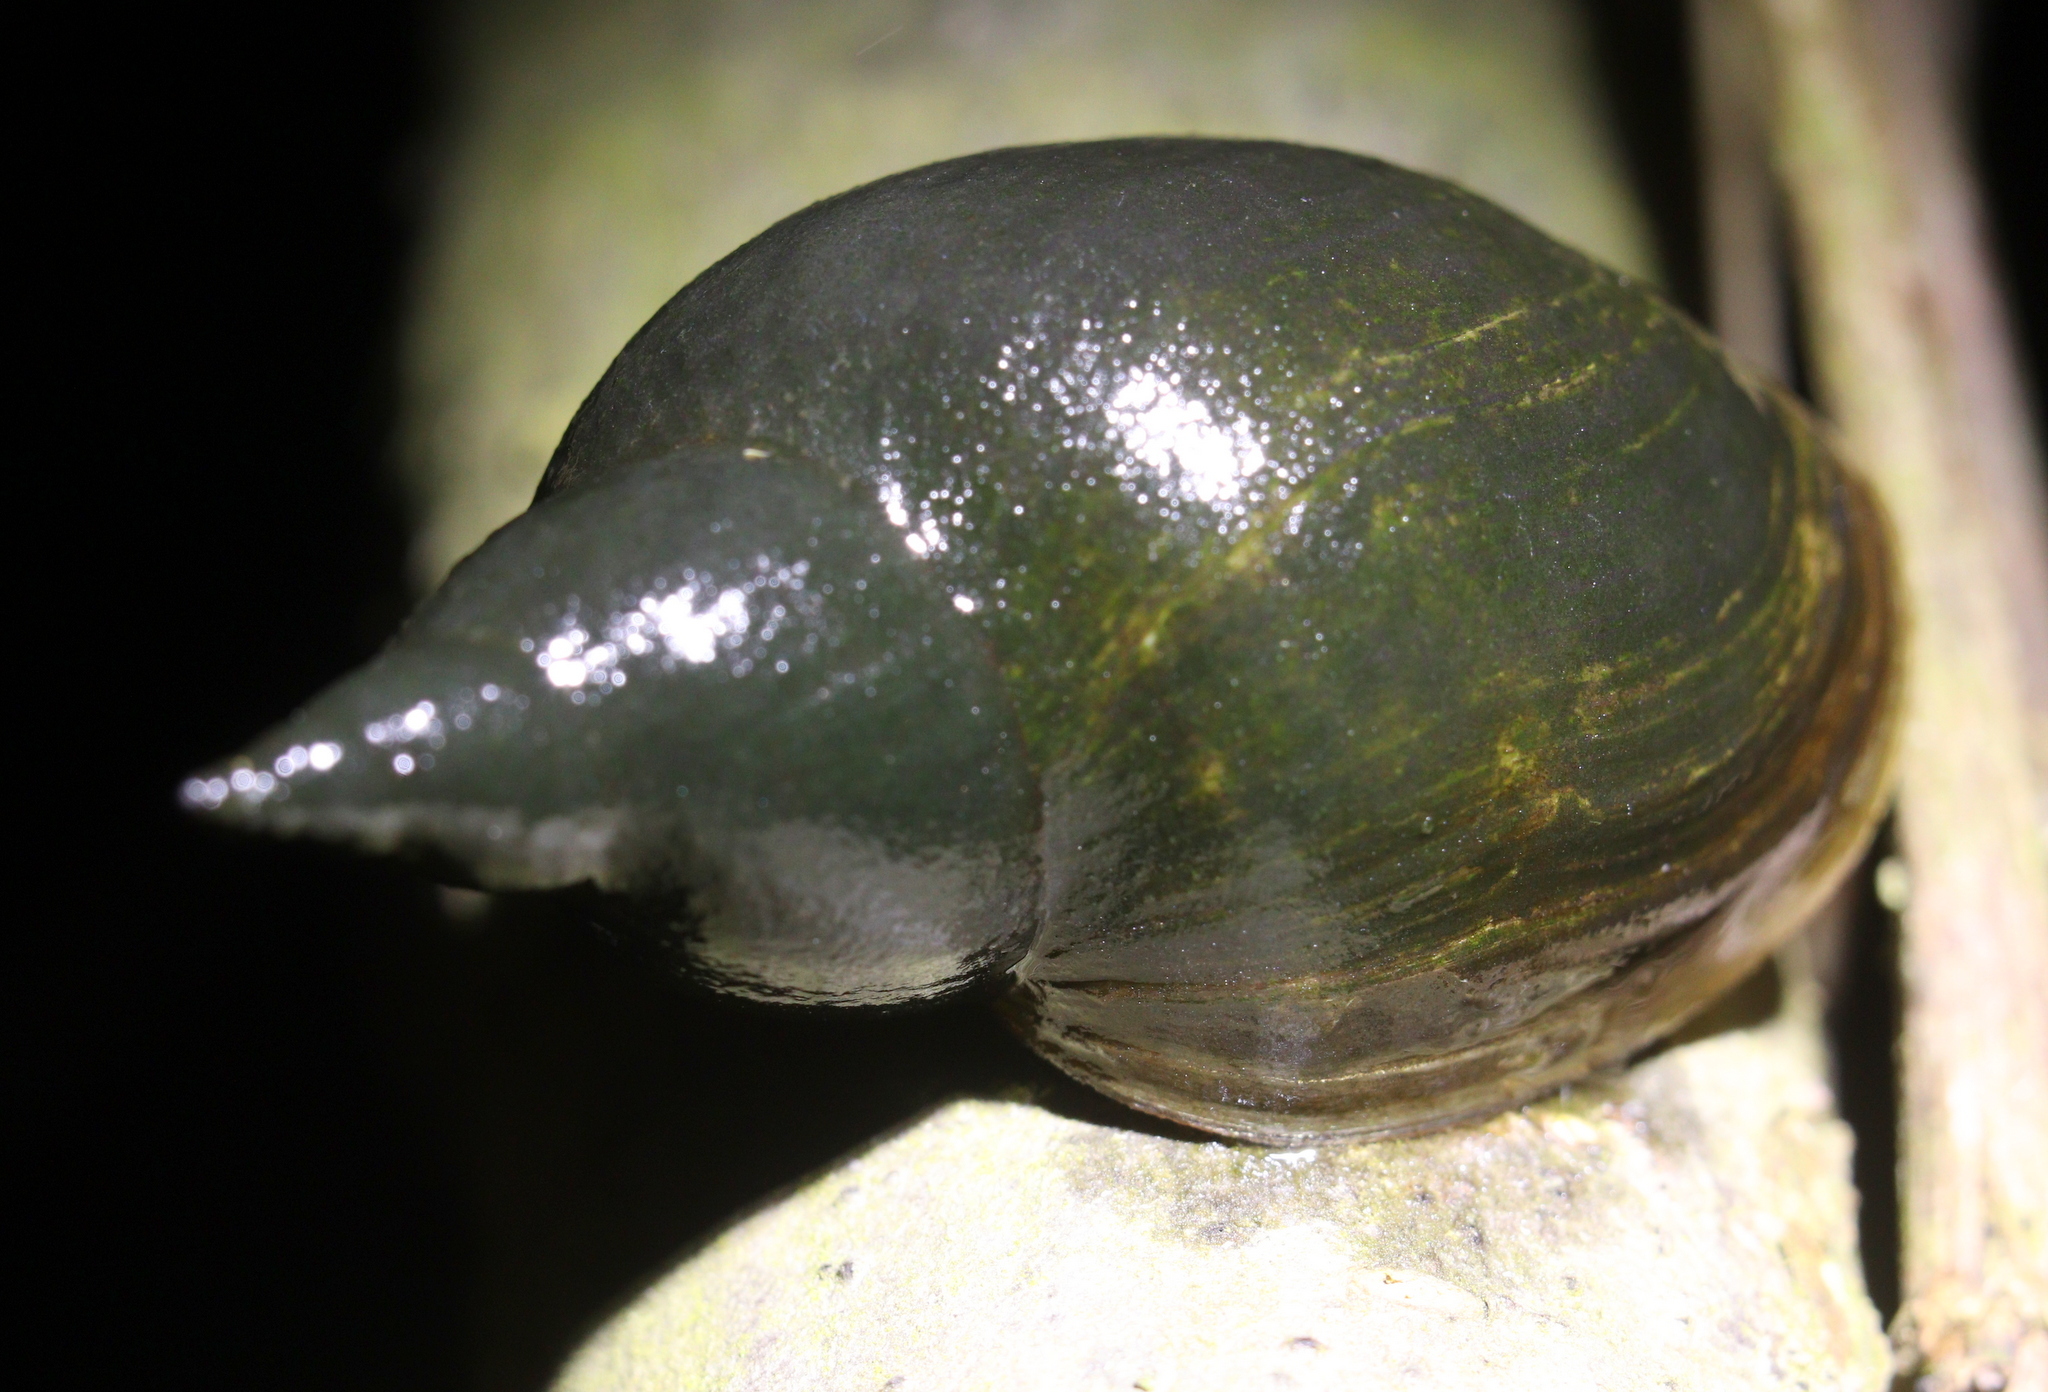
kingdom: Animalia
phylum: Mollusca
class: Gastropoda
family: Lymnaeidae
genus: Lymnaea
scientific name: Lymnaea stagnalis
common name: Great pond snail
